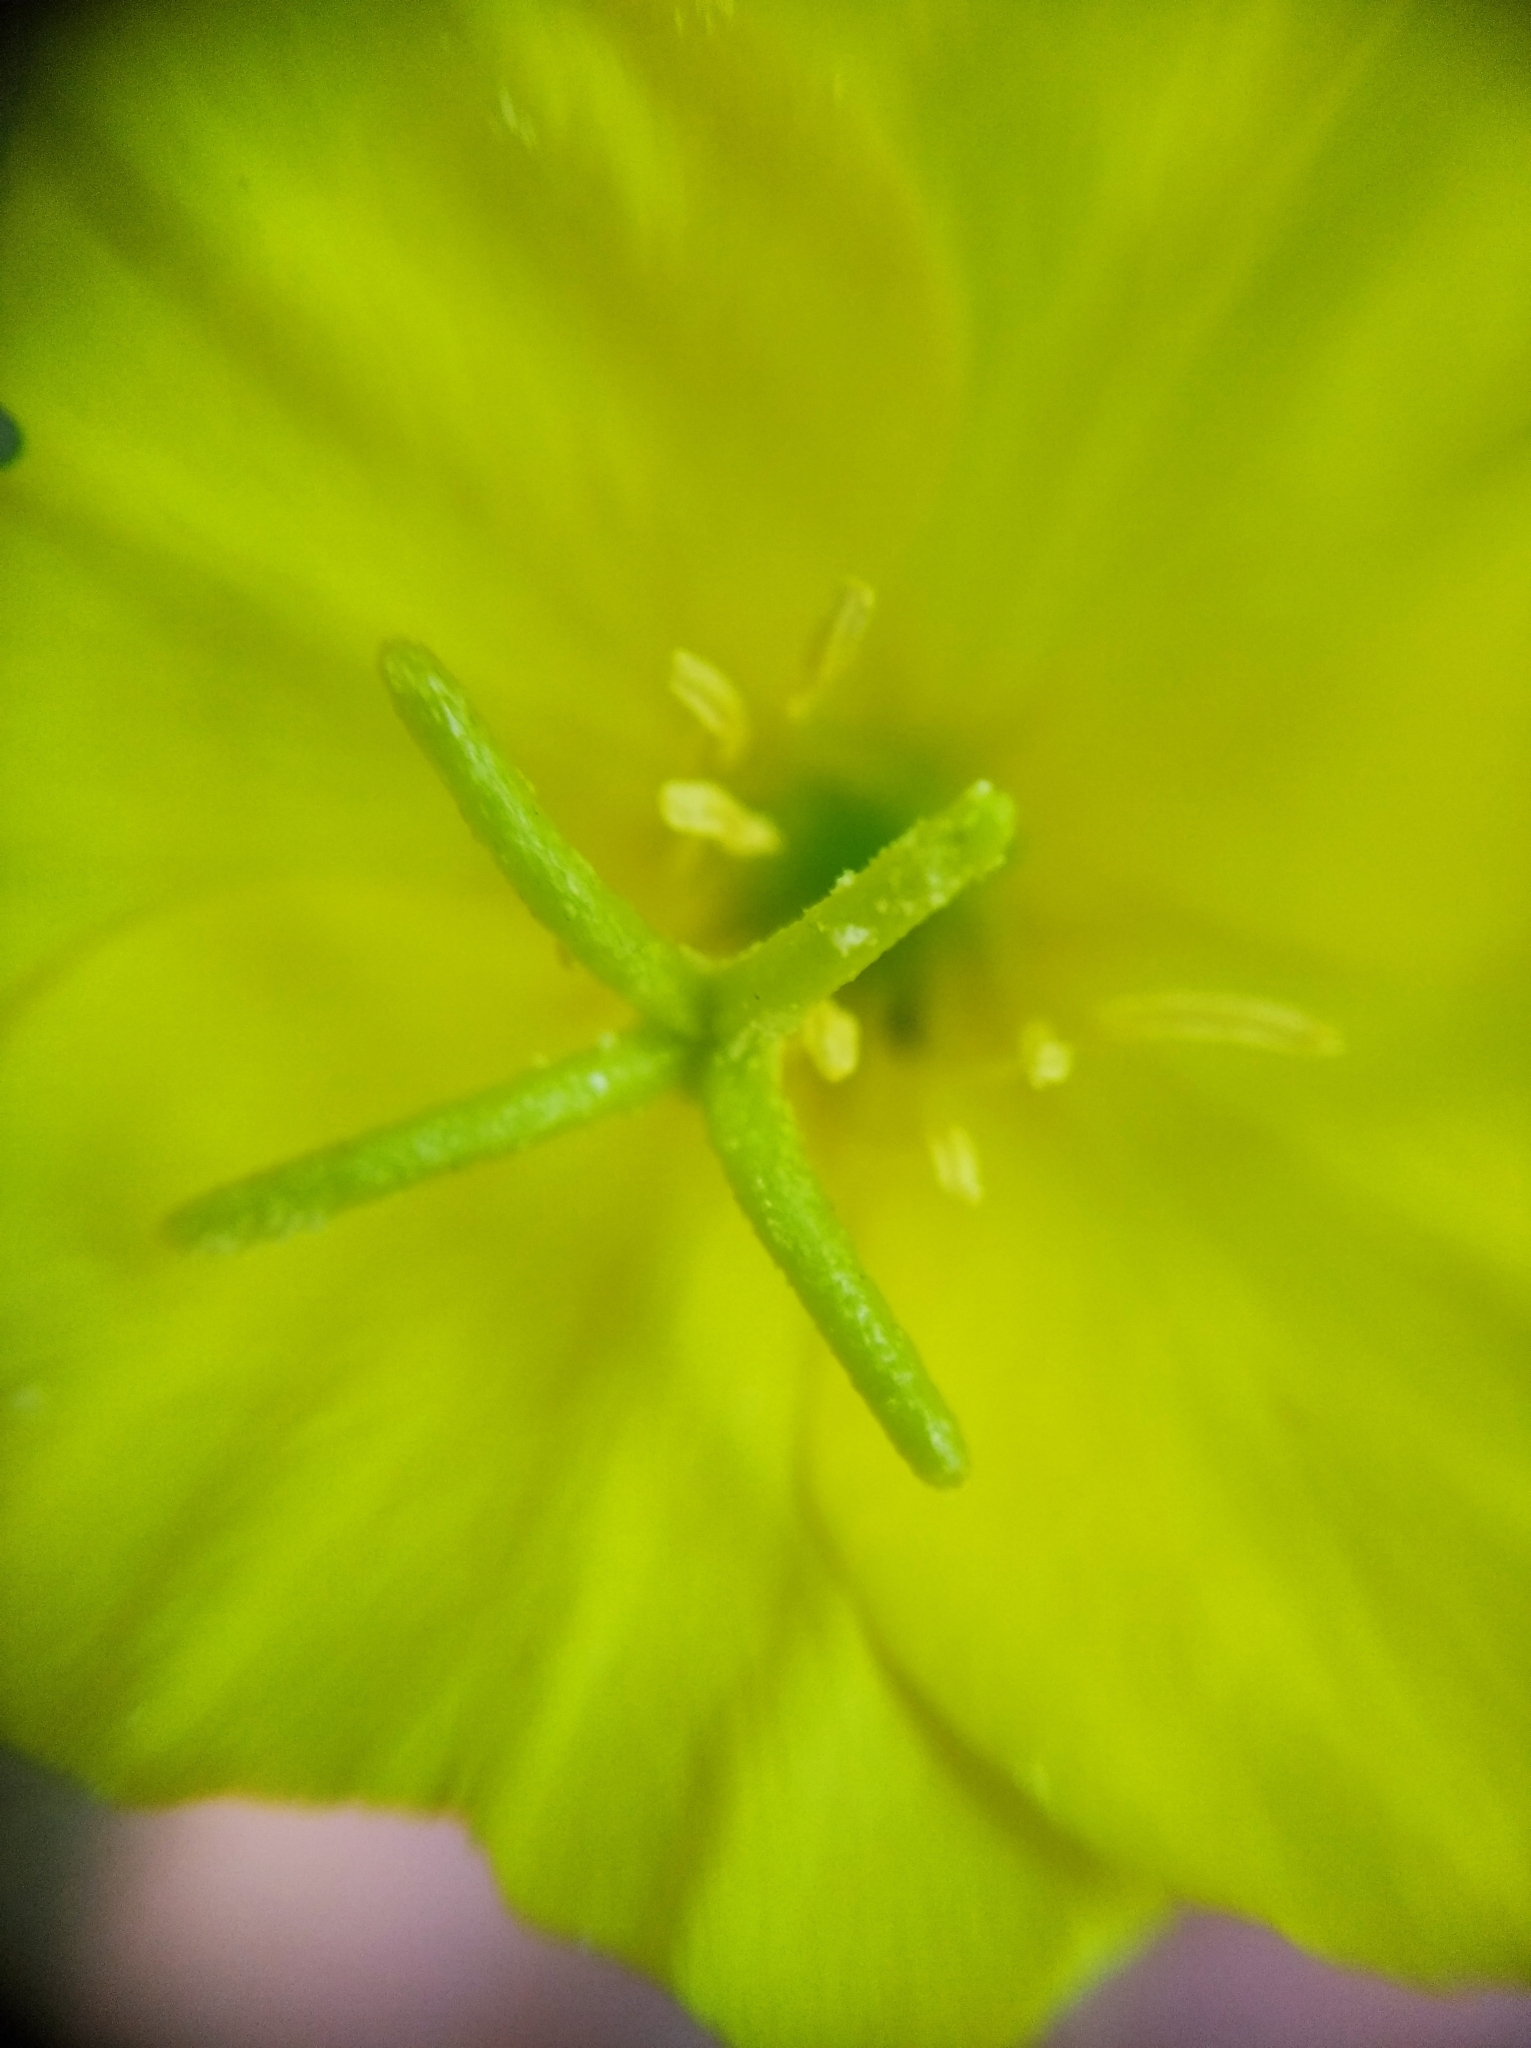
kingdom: Plantae
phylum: Tracheophyta
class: Magnoliopsida
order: Myrtales
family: Onagraceae
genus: Oenothera
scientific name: Oenothera rubricaulis
